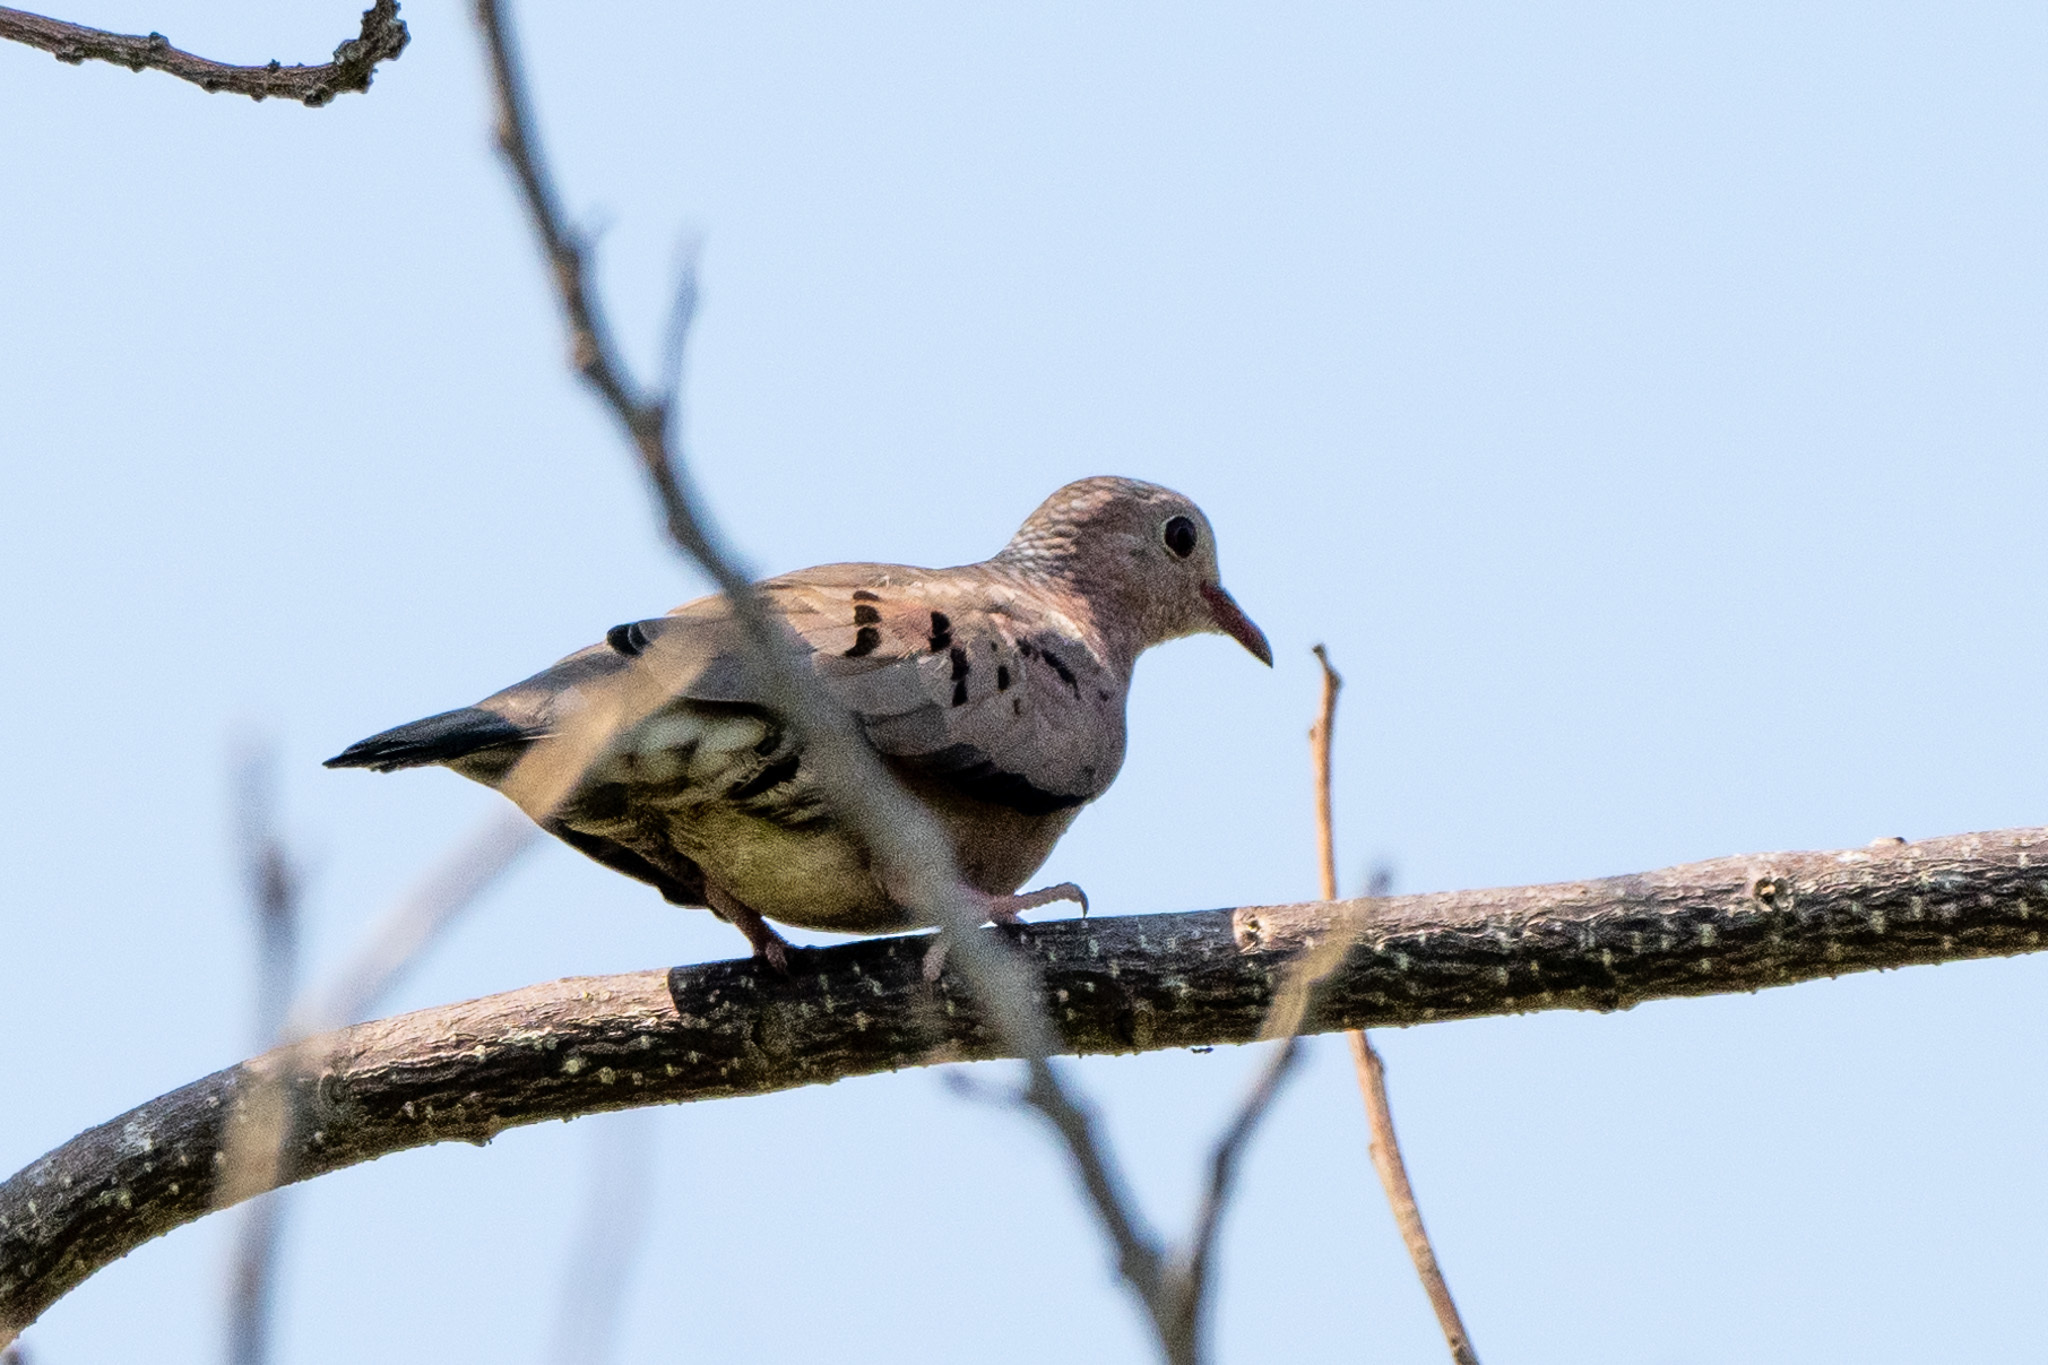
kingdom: Animalia
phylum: Chordata
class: Aves
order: Columbiformes
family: Columbidae
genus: Columbina
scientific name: Columbina passerina
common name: Common ground-dove
